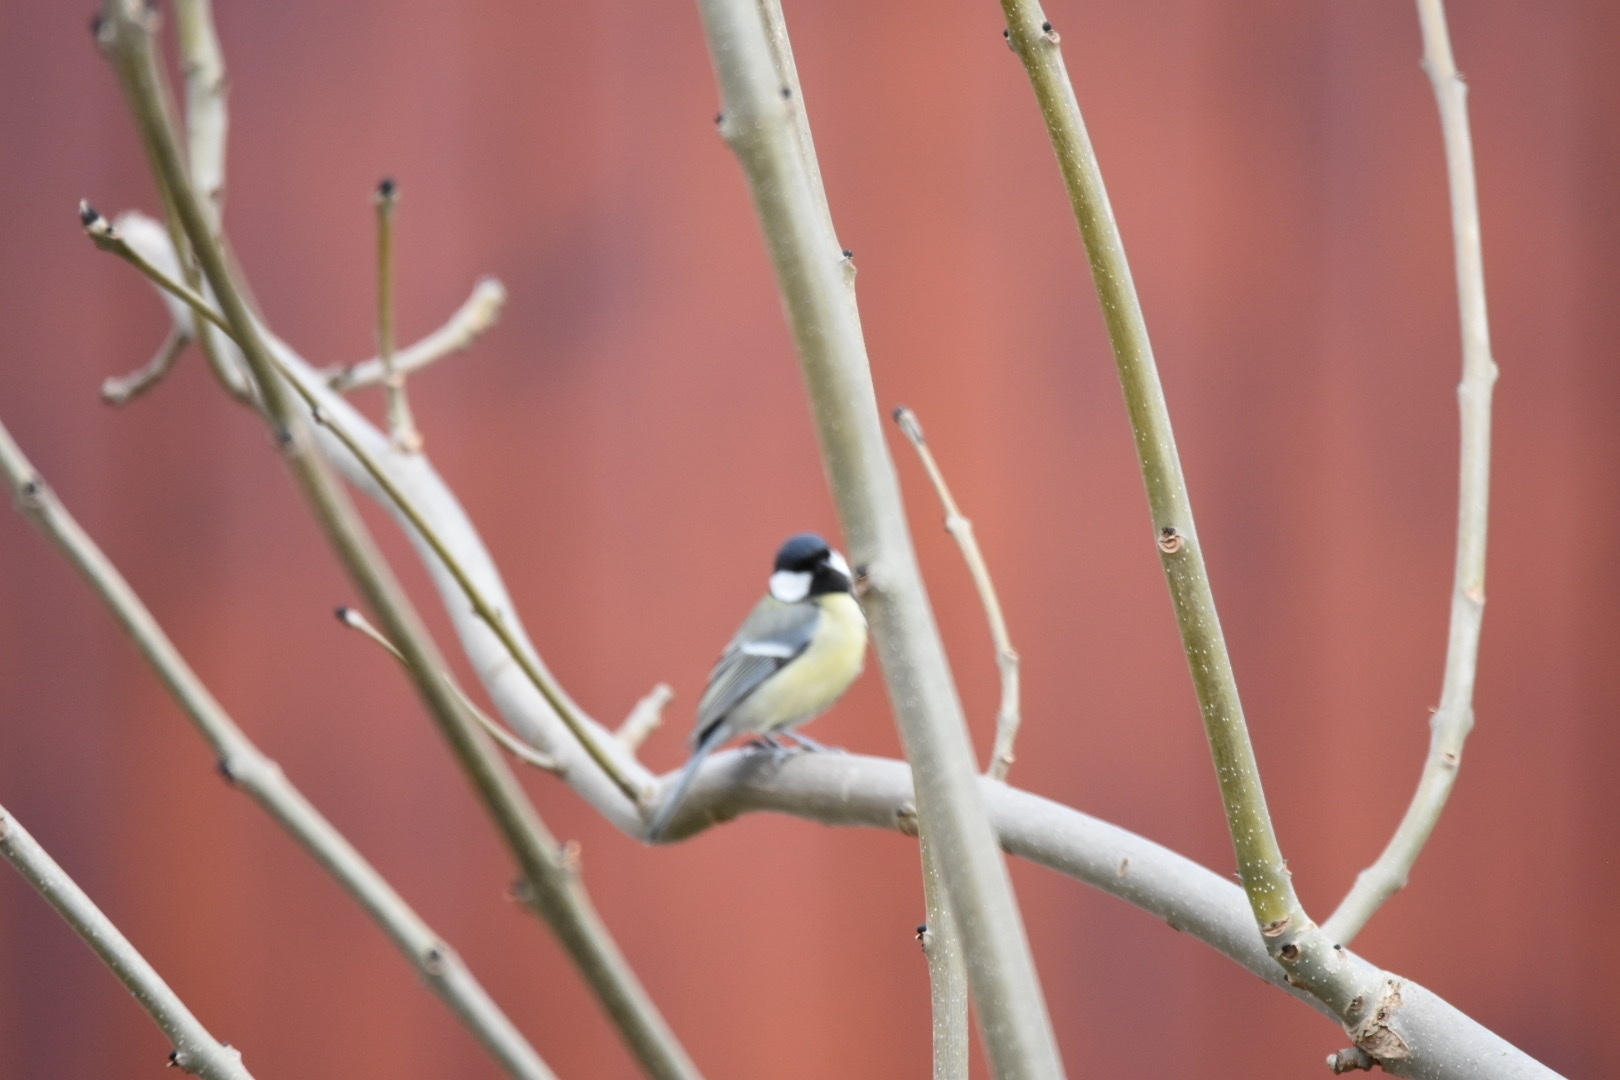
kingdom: Animalia
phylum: Chordata
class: Aves
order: Passeriformes
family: Paridae
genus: Parus
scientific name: Parus major
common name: Great tit
